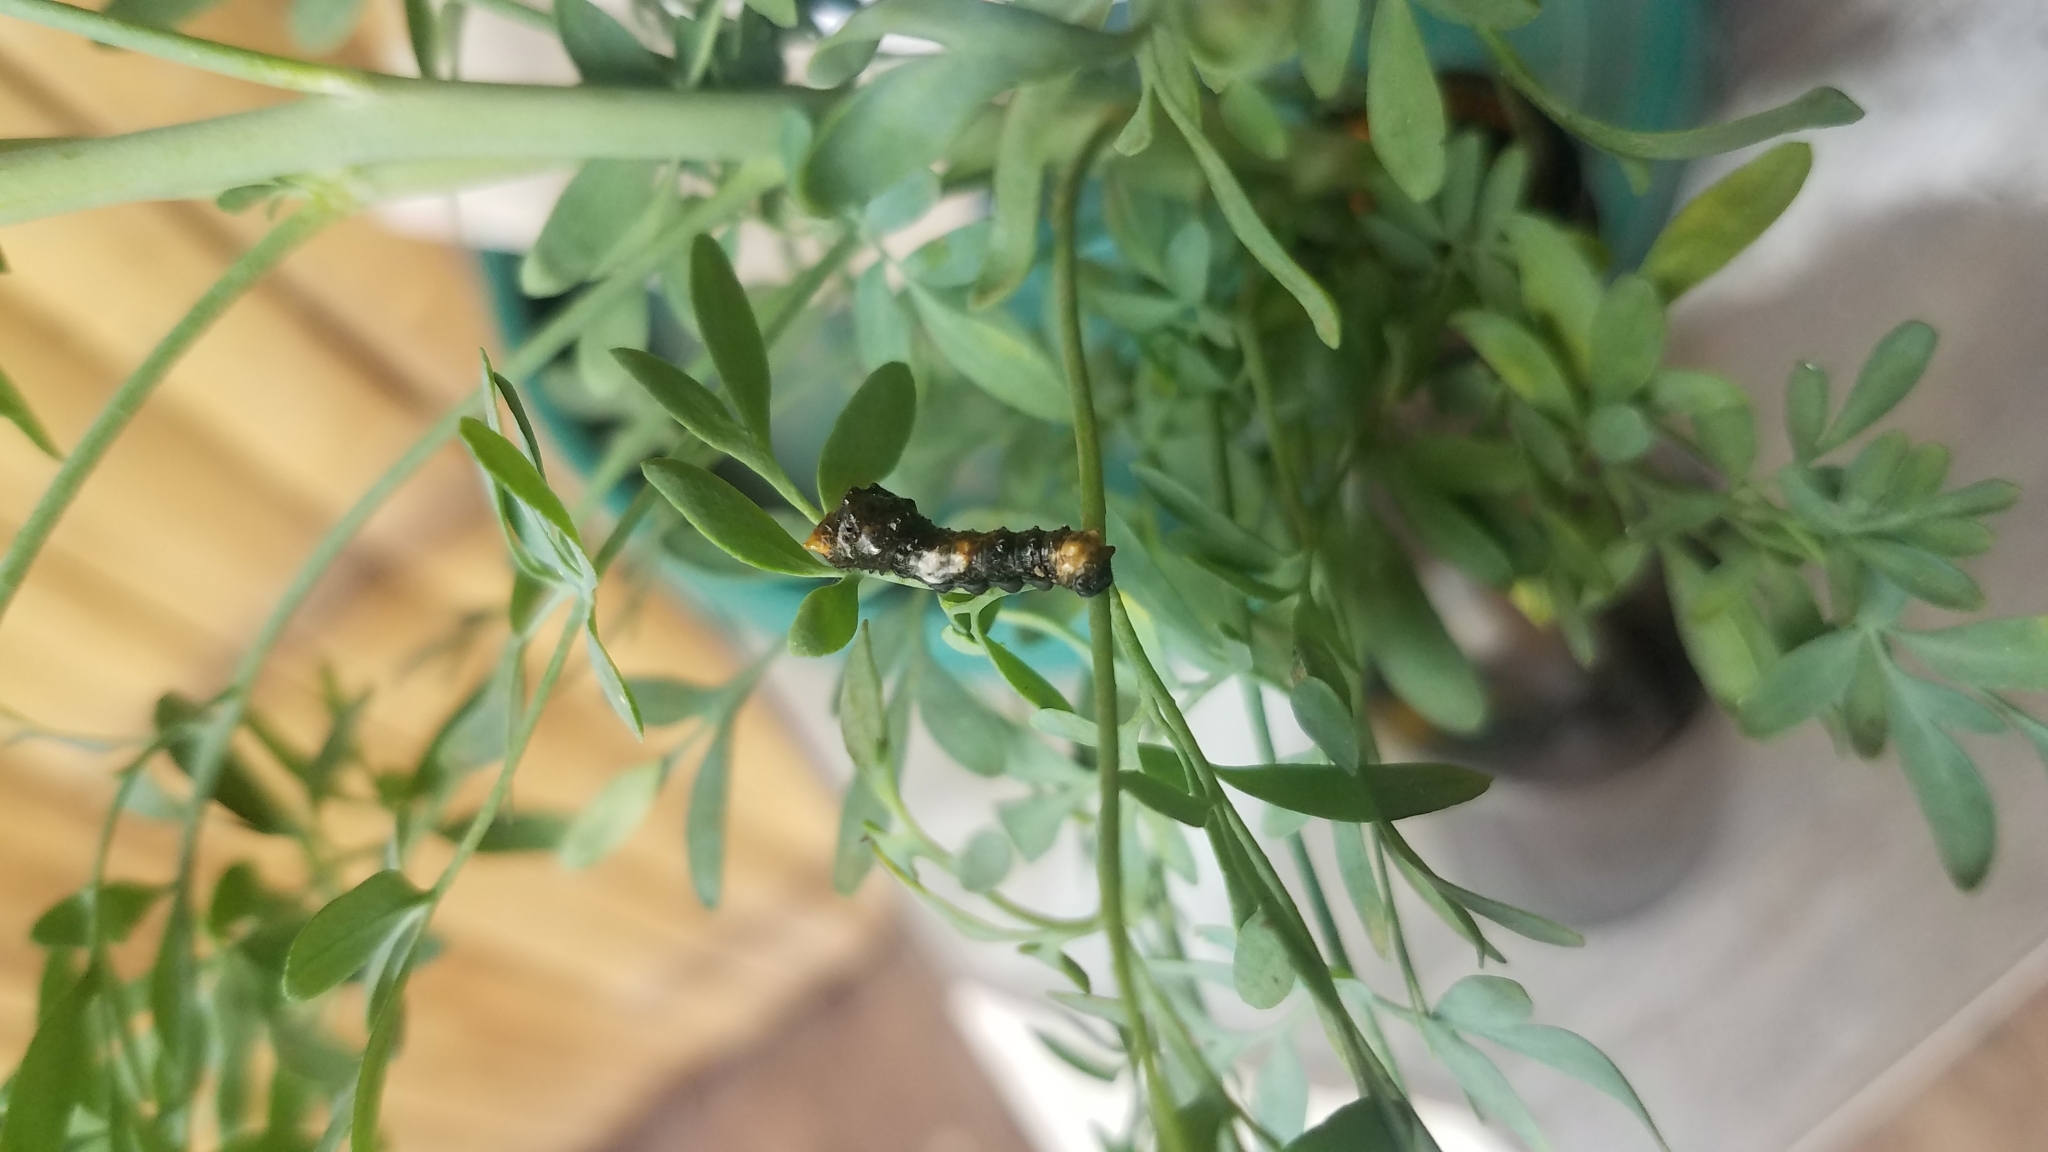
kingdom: Animalia
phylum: Arthropoda
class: Insecta
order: Lepidoptera
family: Papilionidae
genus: Papilio
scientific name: Papilio rumiko
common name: Western giant swallowtail
